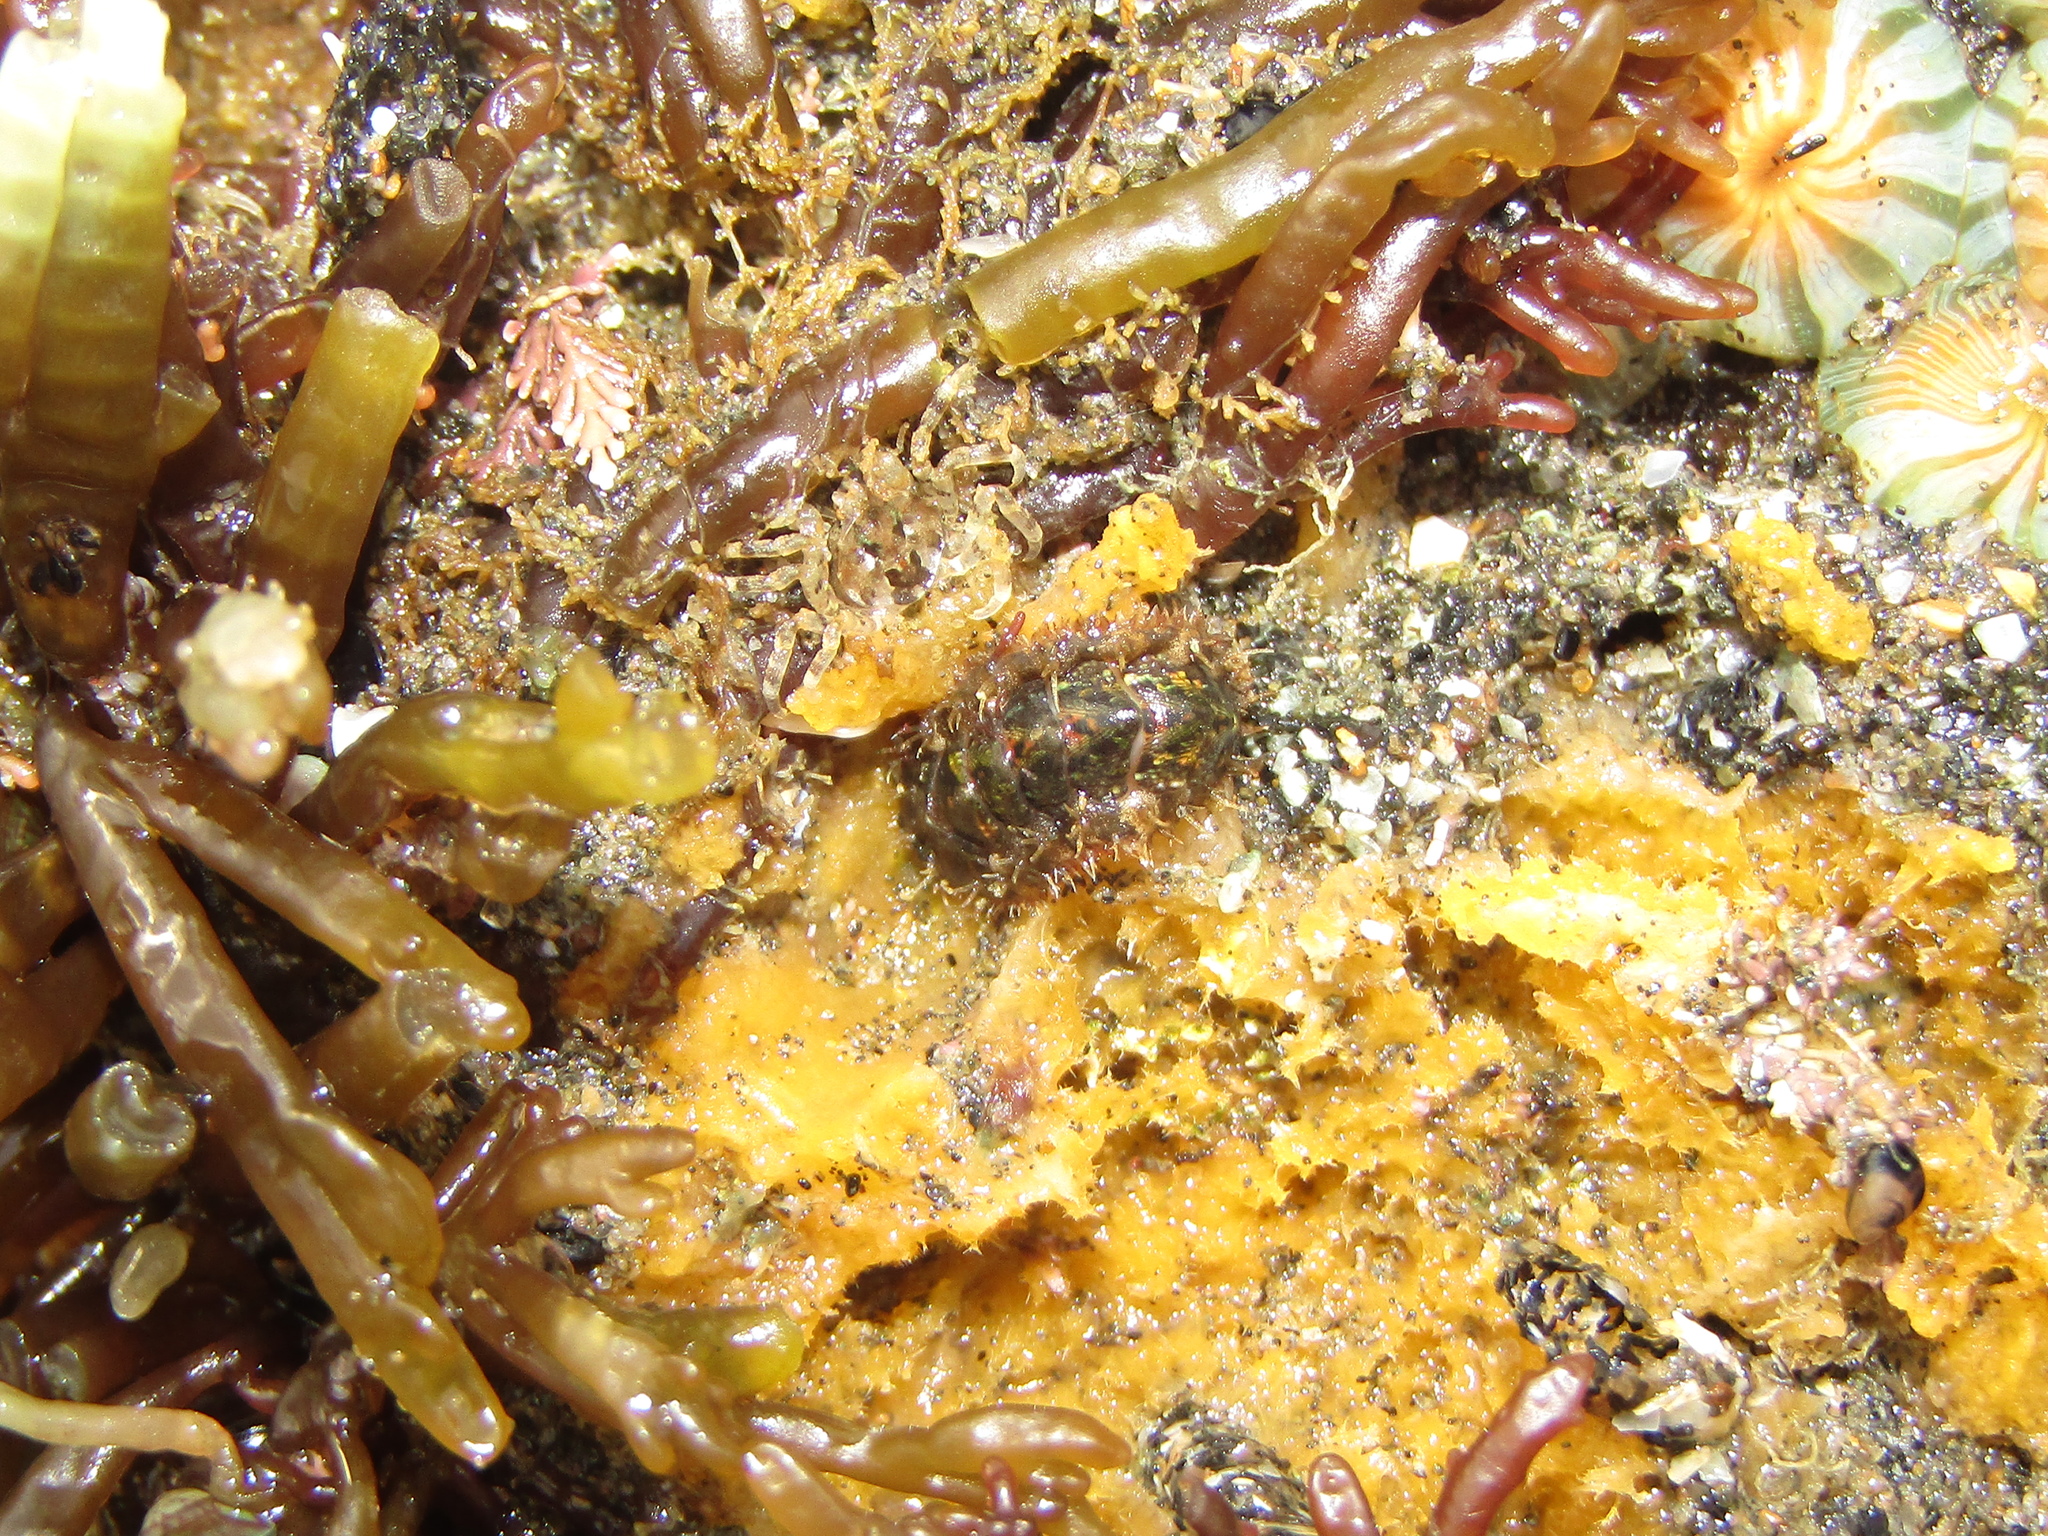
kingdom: Animalia
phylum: Mollusca
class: Polyplacophora
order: Chitonida
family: Mopaliidae
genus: Plaxiphora
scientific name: Plaxiphora caelata
